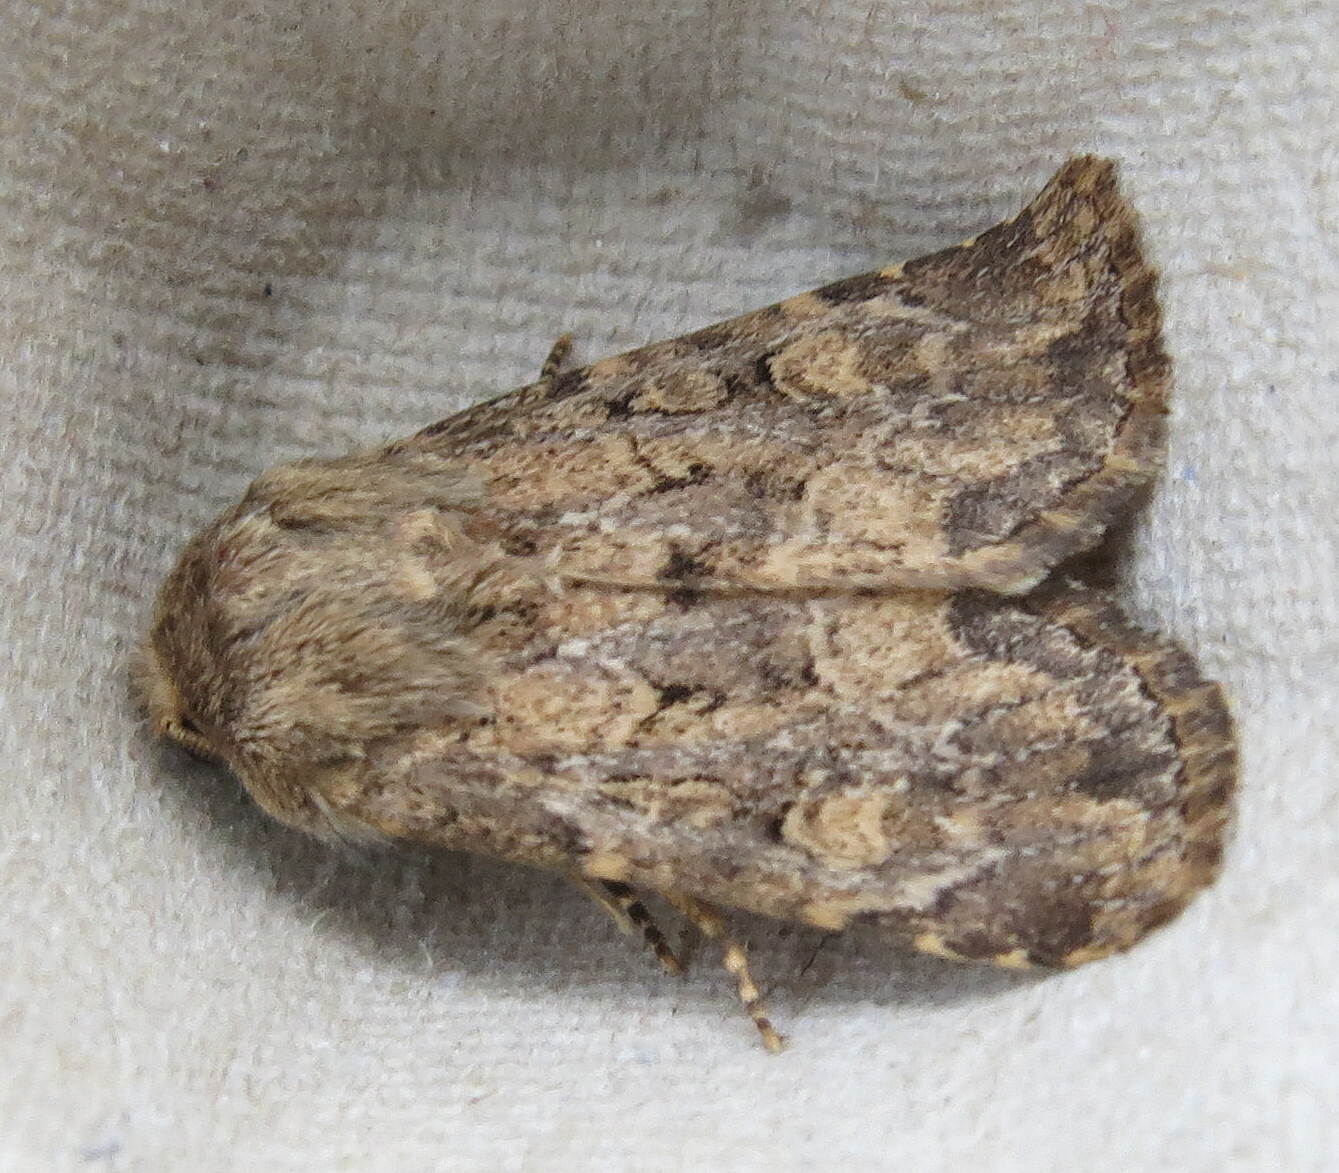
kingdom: Animalia
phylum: Arthropoda
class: Insecta
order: Lepidoptera
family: Noctuidae
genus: Luperina
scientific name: Luperina testacea
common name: Flounced rustic
